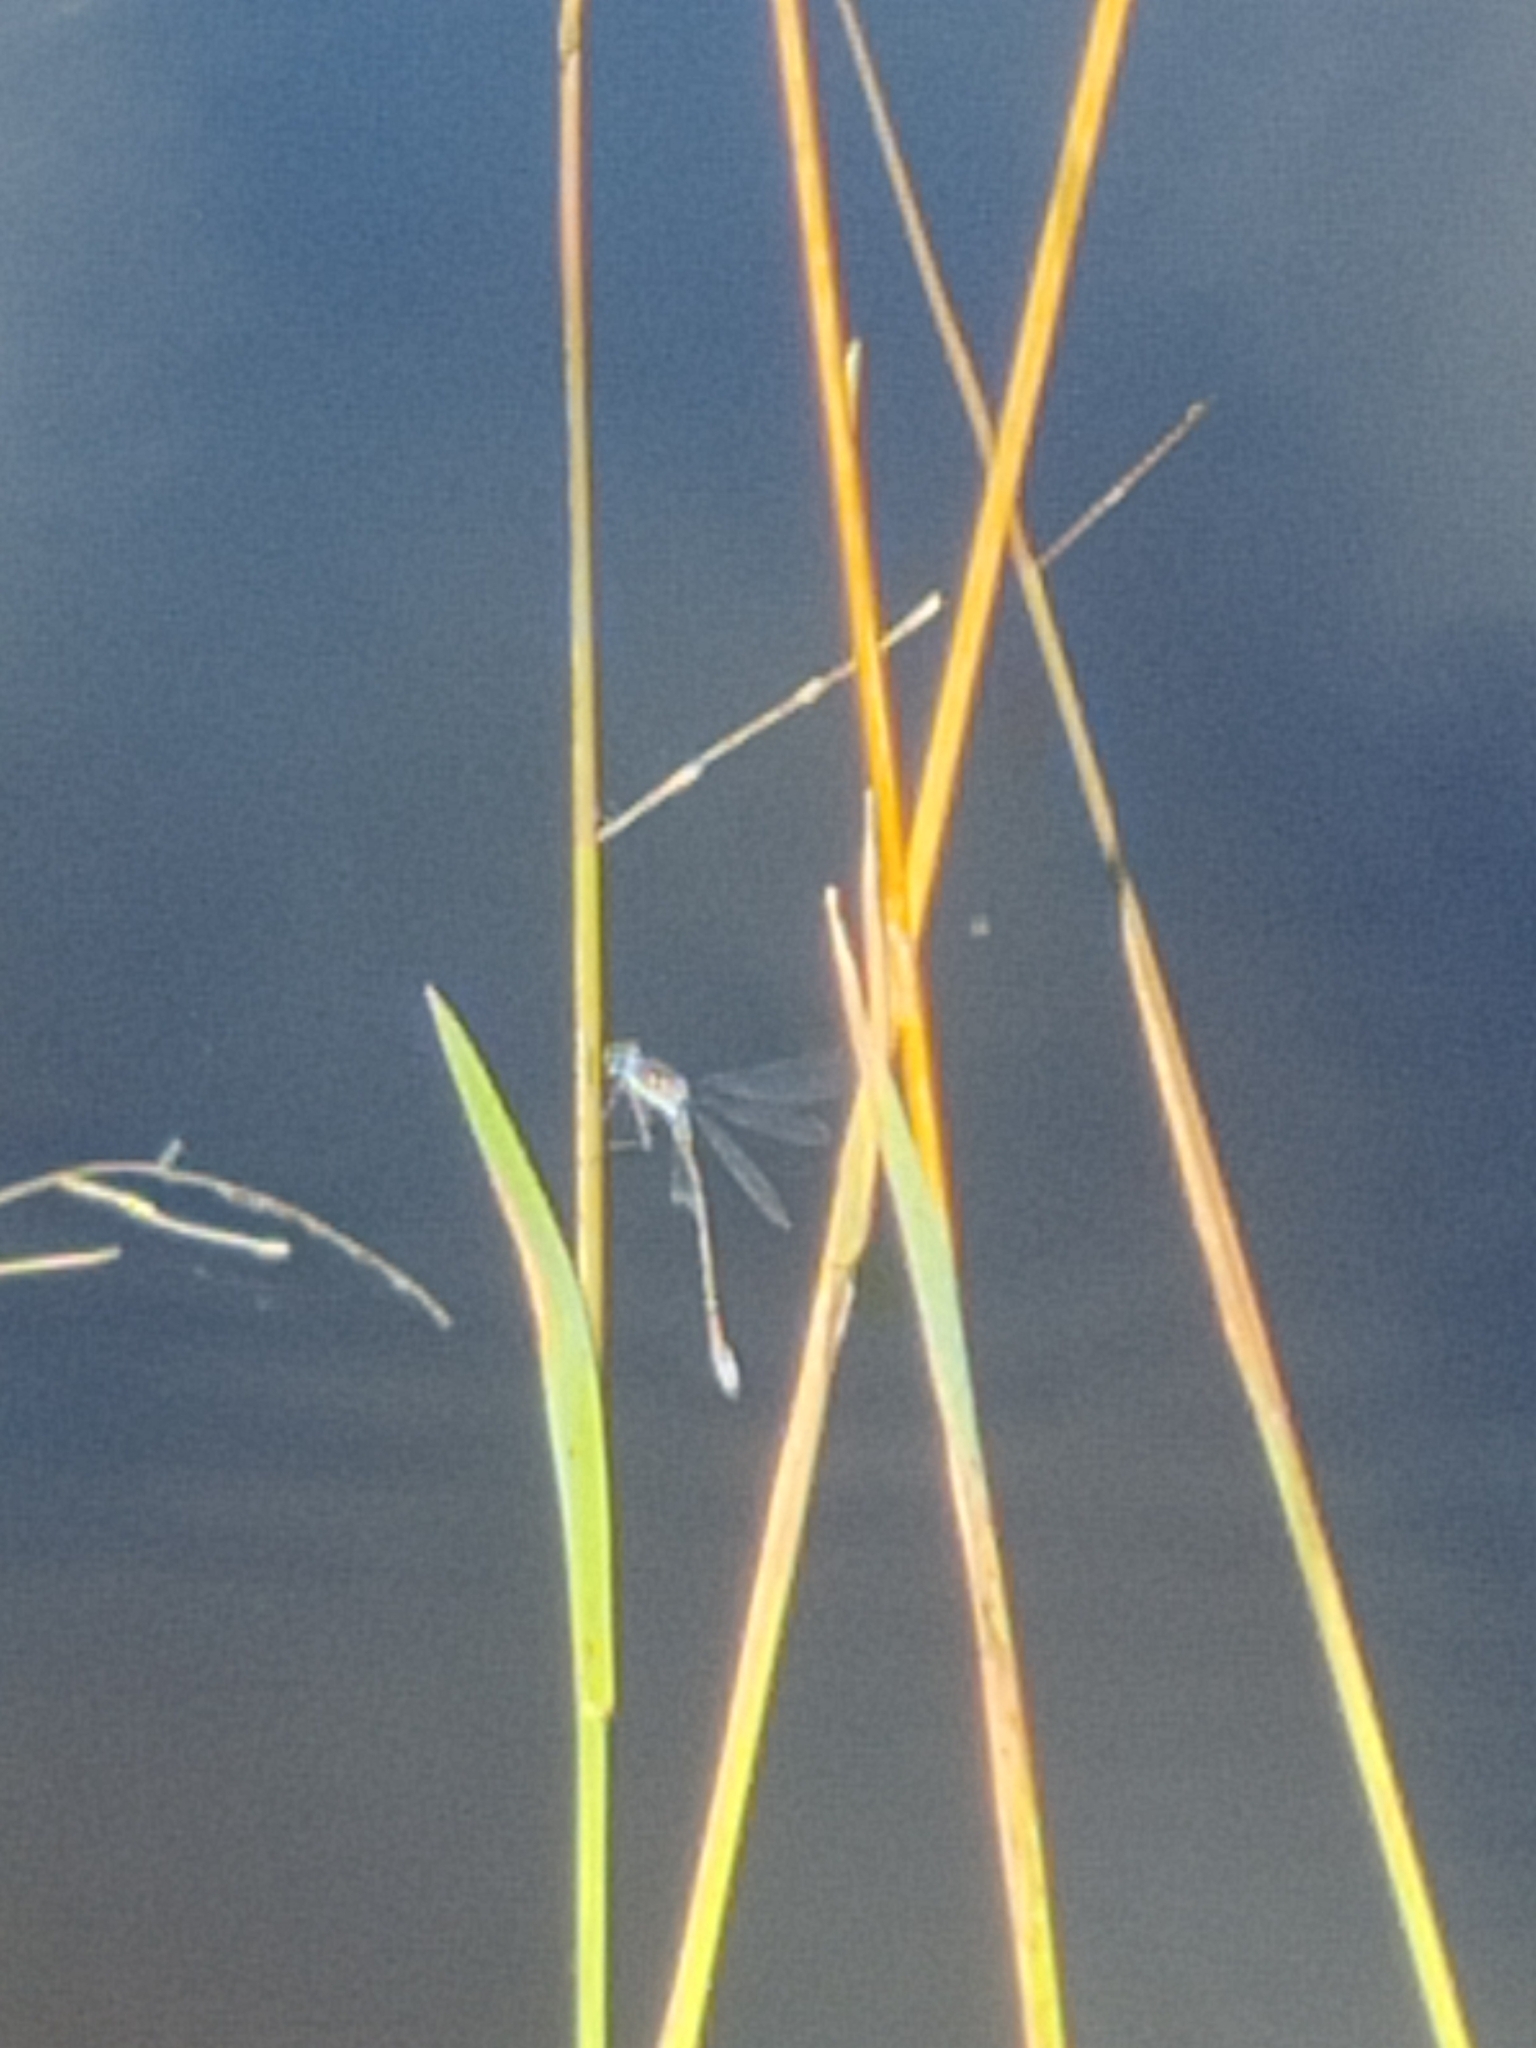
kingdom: Animalia
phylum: Arthropoda
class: Insecta
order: Odonata
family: Lestidae
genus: Lestes
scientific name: Lestes sponsa
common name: Common spreadwing
